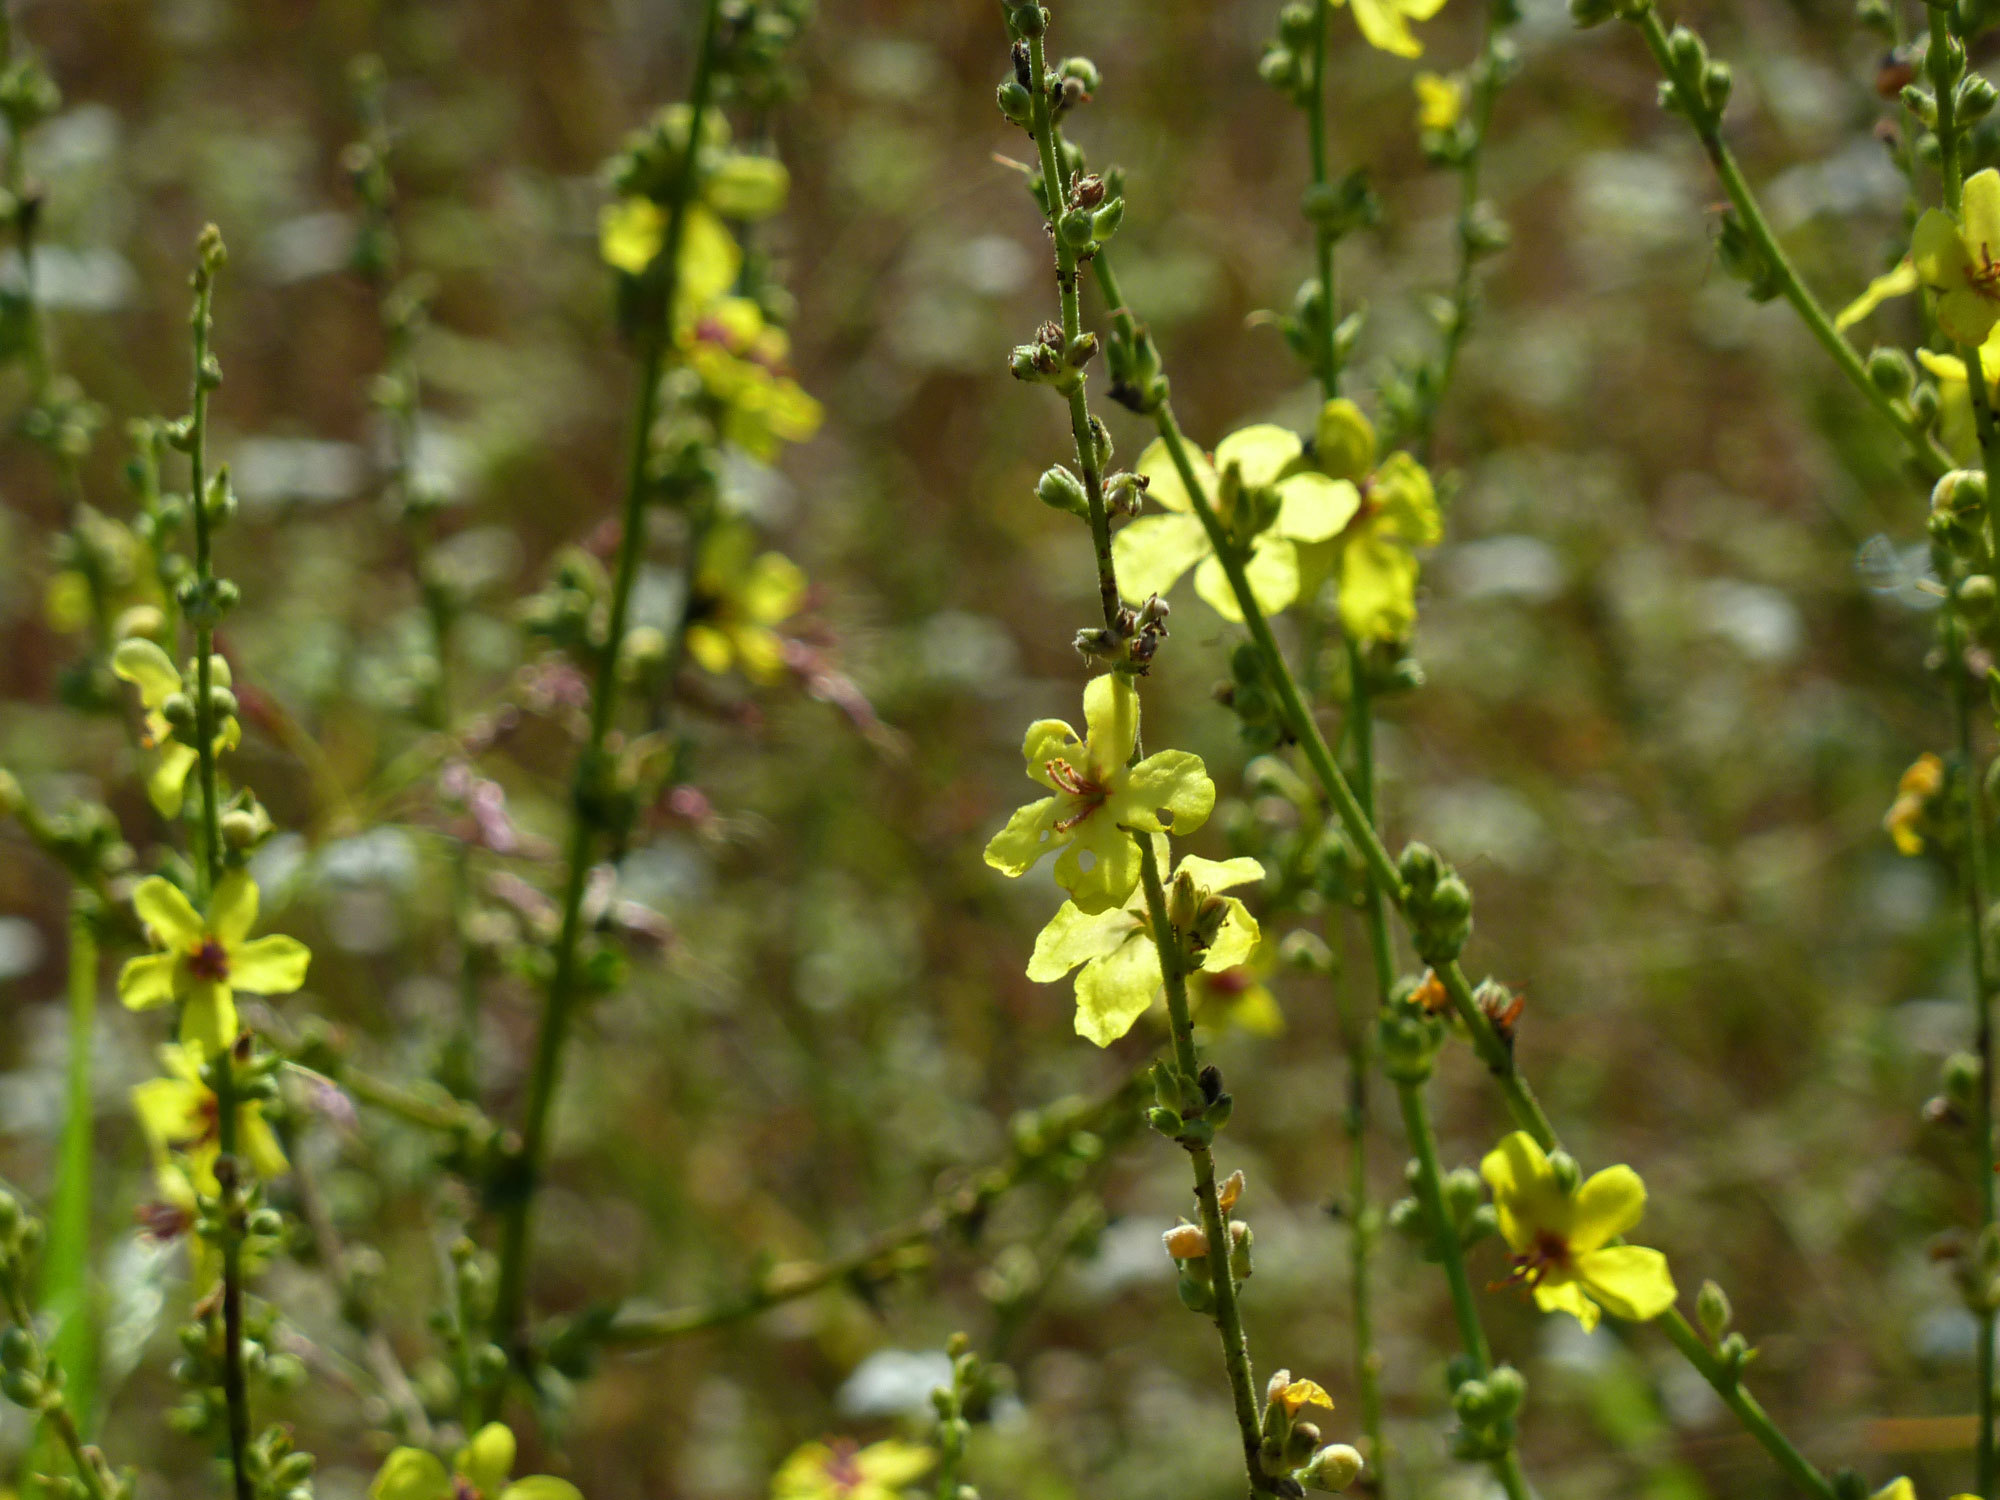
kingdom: Plantae
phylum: Tracheophyta
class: Magnoliopsida
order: Lamiales
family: Scrophulariaceae
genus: Verbascum
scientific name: Verbascum sinuatum
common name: Wavyleaf mullein
